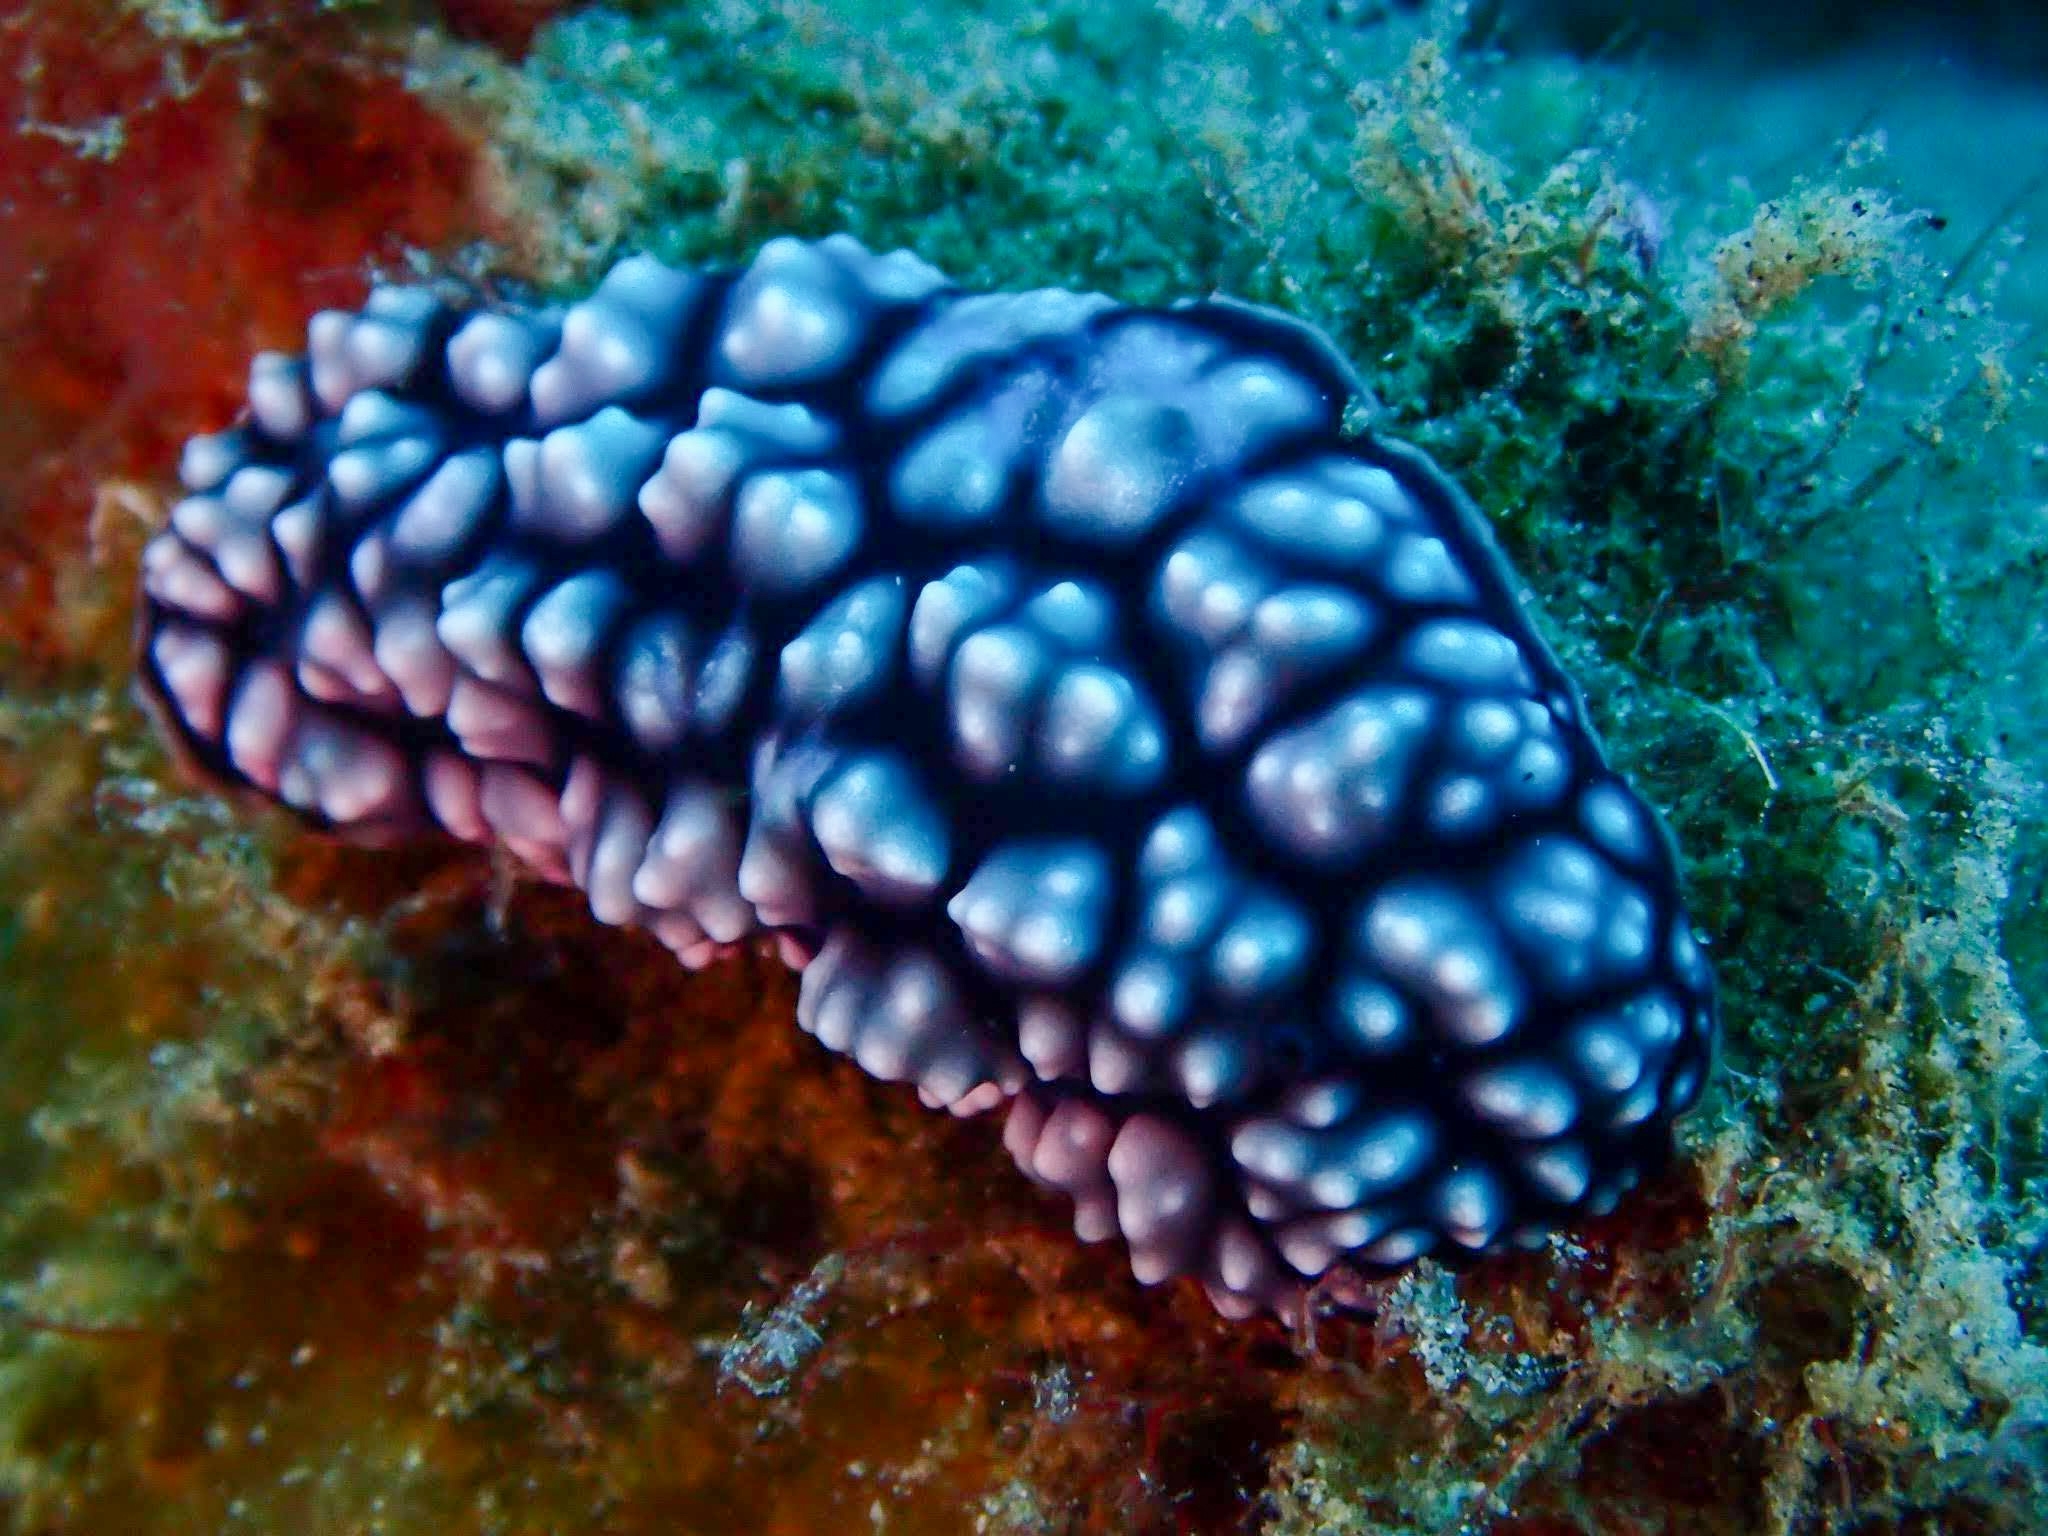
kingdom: Animalia
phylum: Mollusca
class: Gastropoda
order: Nudibranchia
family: Phyllidiidae
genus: Phyllidiella
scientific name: Phyllidiella pustulosa
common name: Pustular phyllidia
